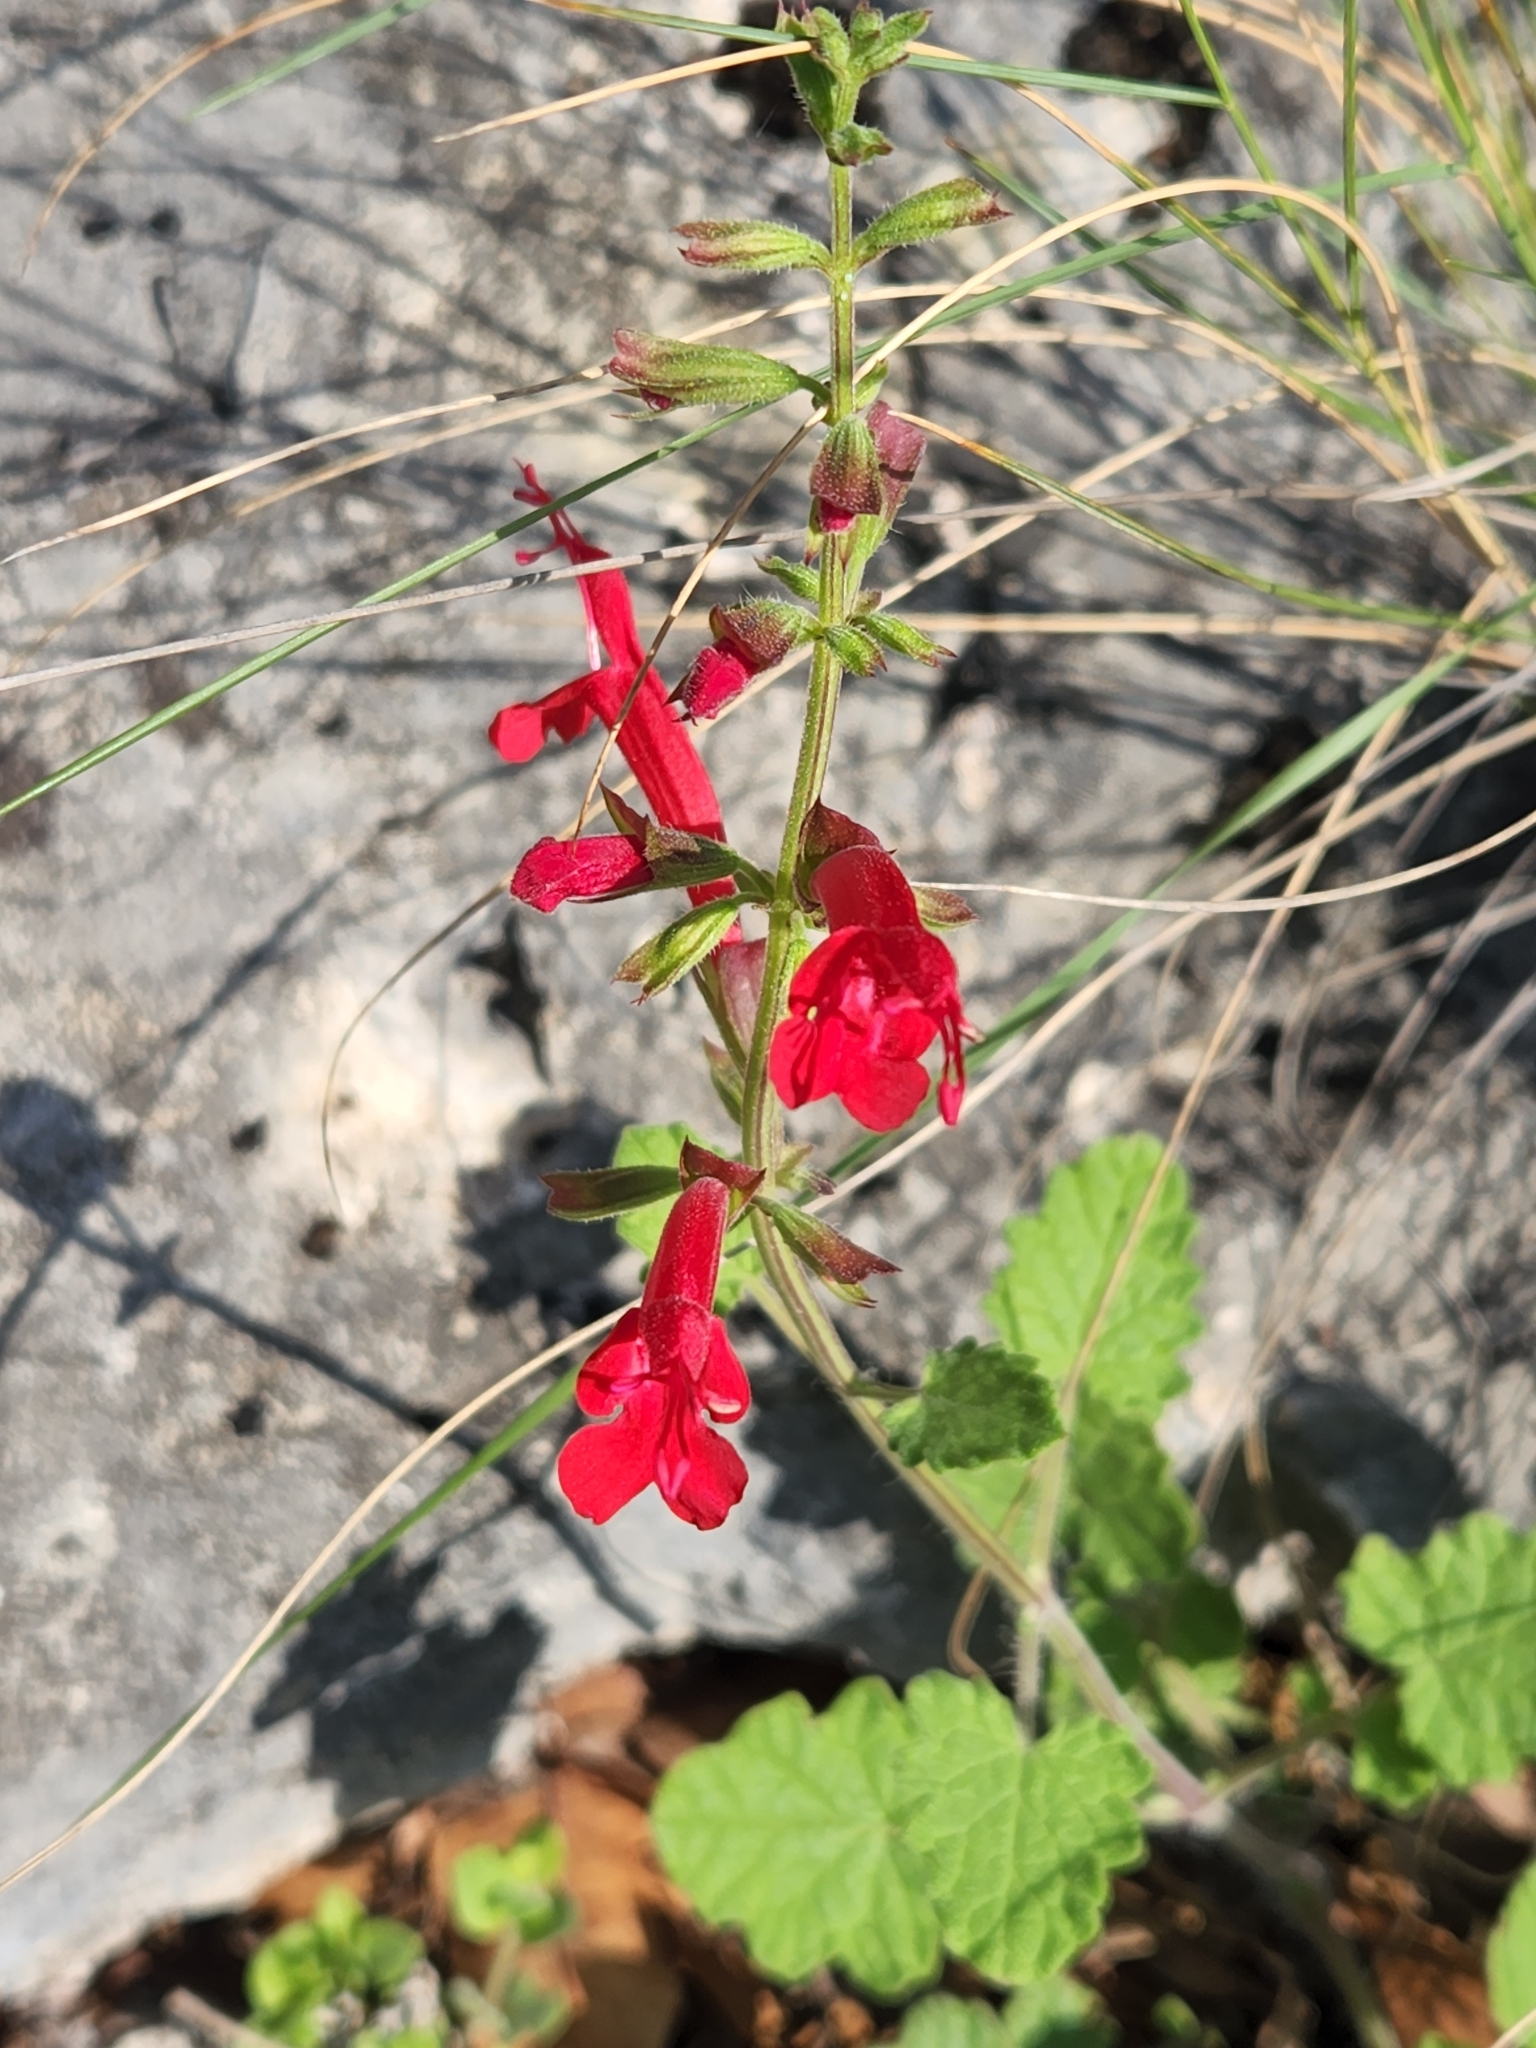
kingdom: Plantae
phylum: Tracheophyta
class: Magnoliopsida
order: Lamiales
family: Lamiaceae
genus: Salvia
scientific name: Salvia roemeriana
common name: Cedar sage
